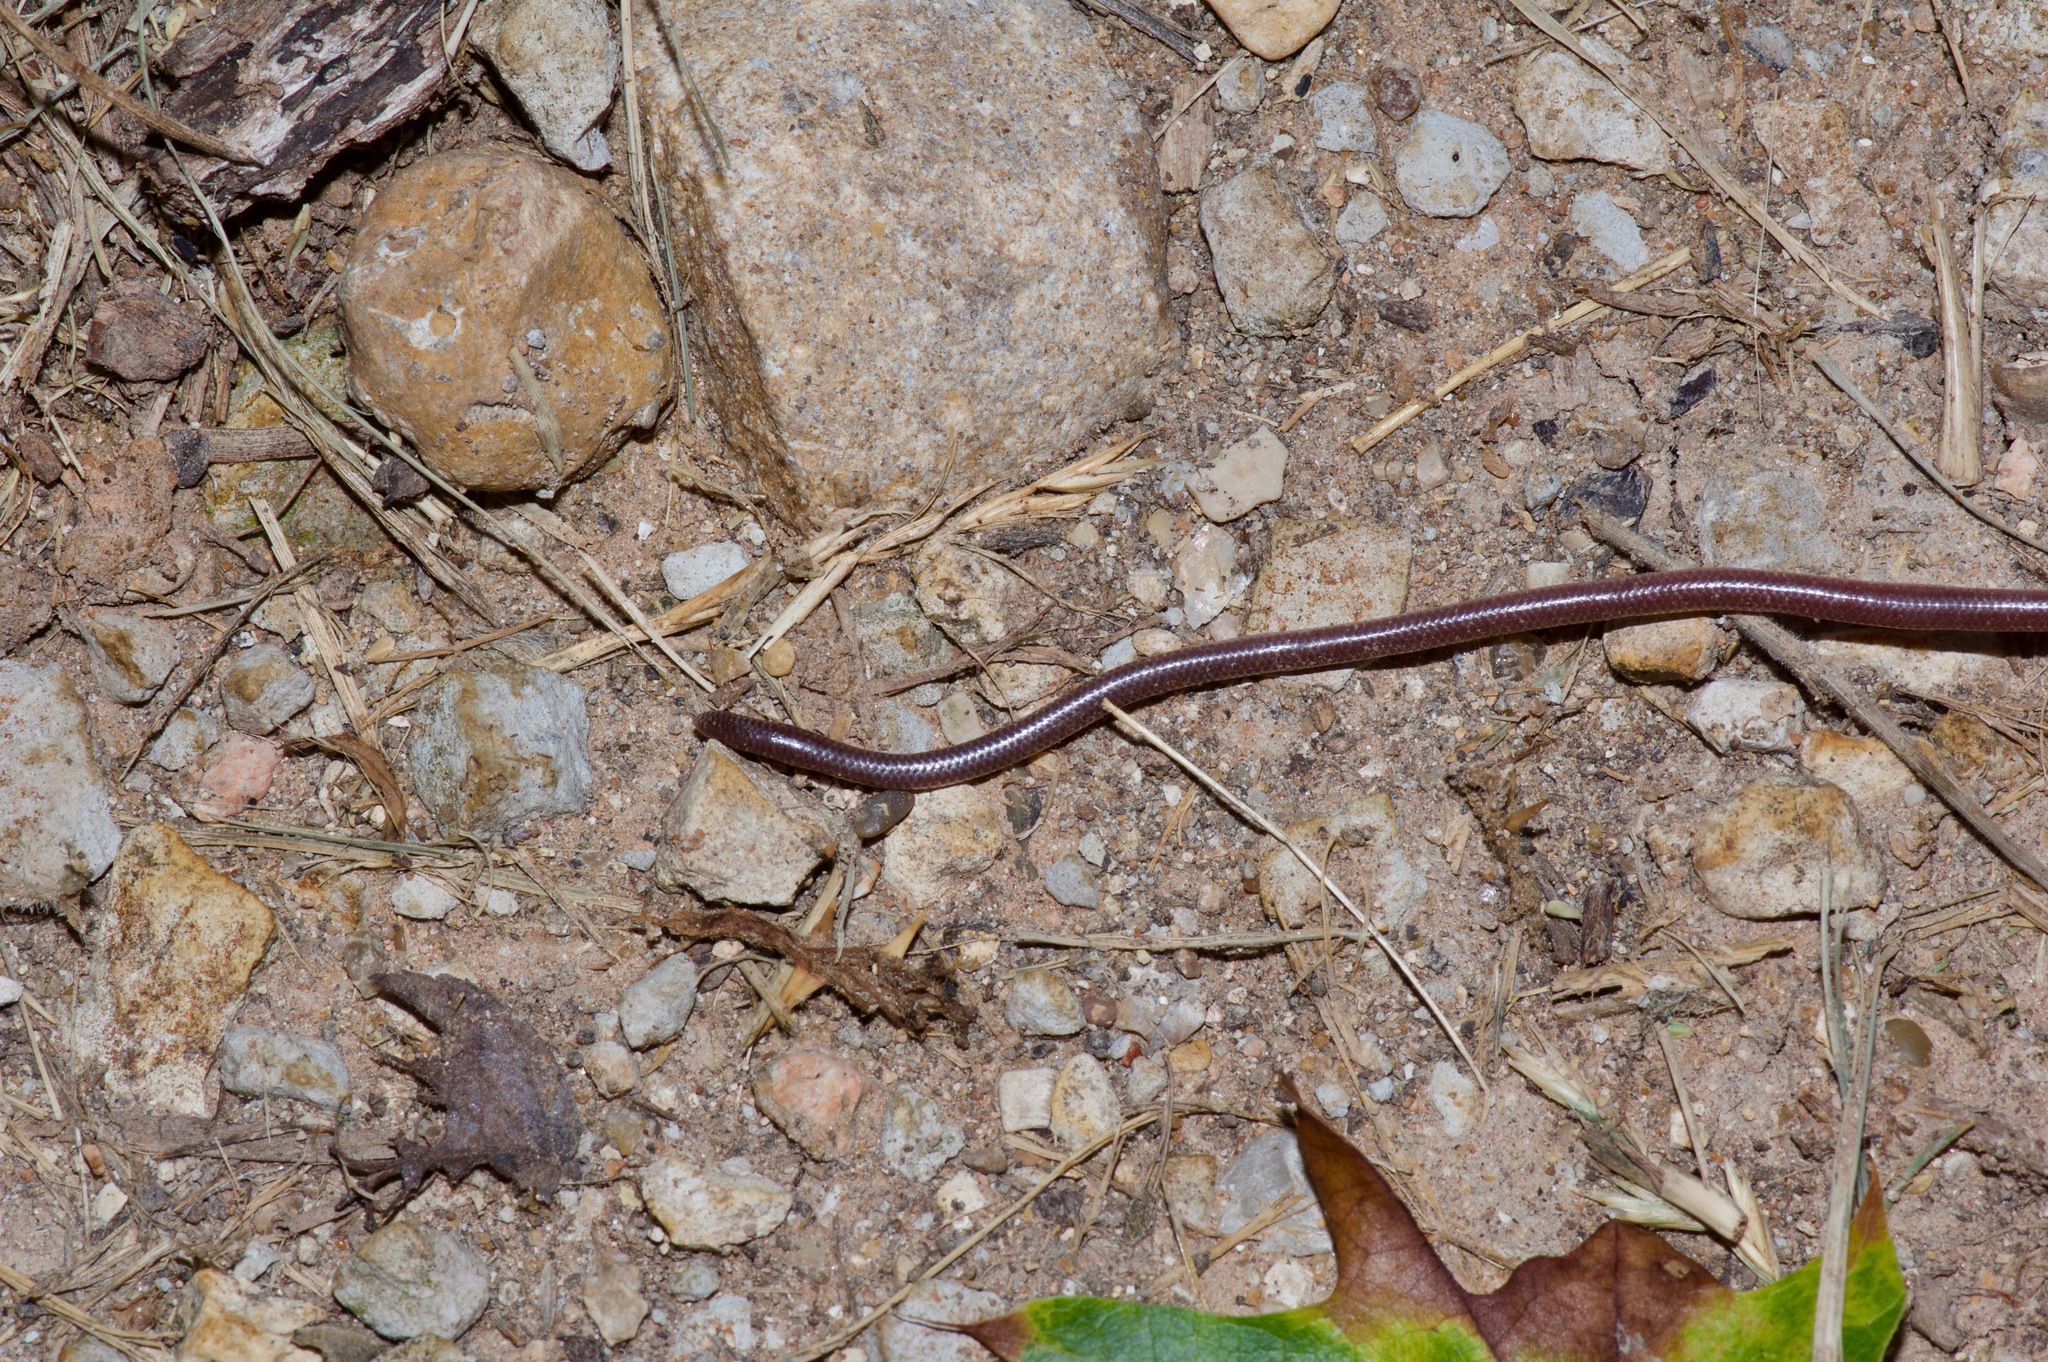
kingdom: Animalia
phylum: Chordata
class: Squamata
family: Leptotyphlopidae
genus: Rena
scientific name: Rena dulcis
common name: Texas blind snake
